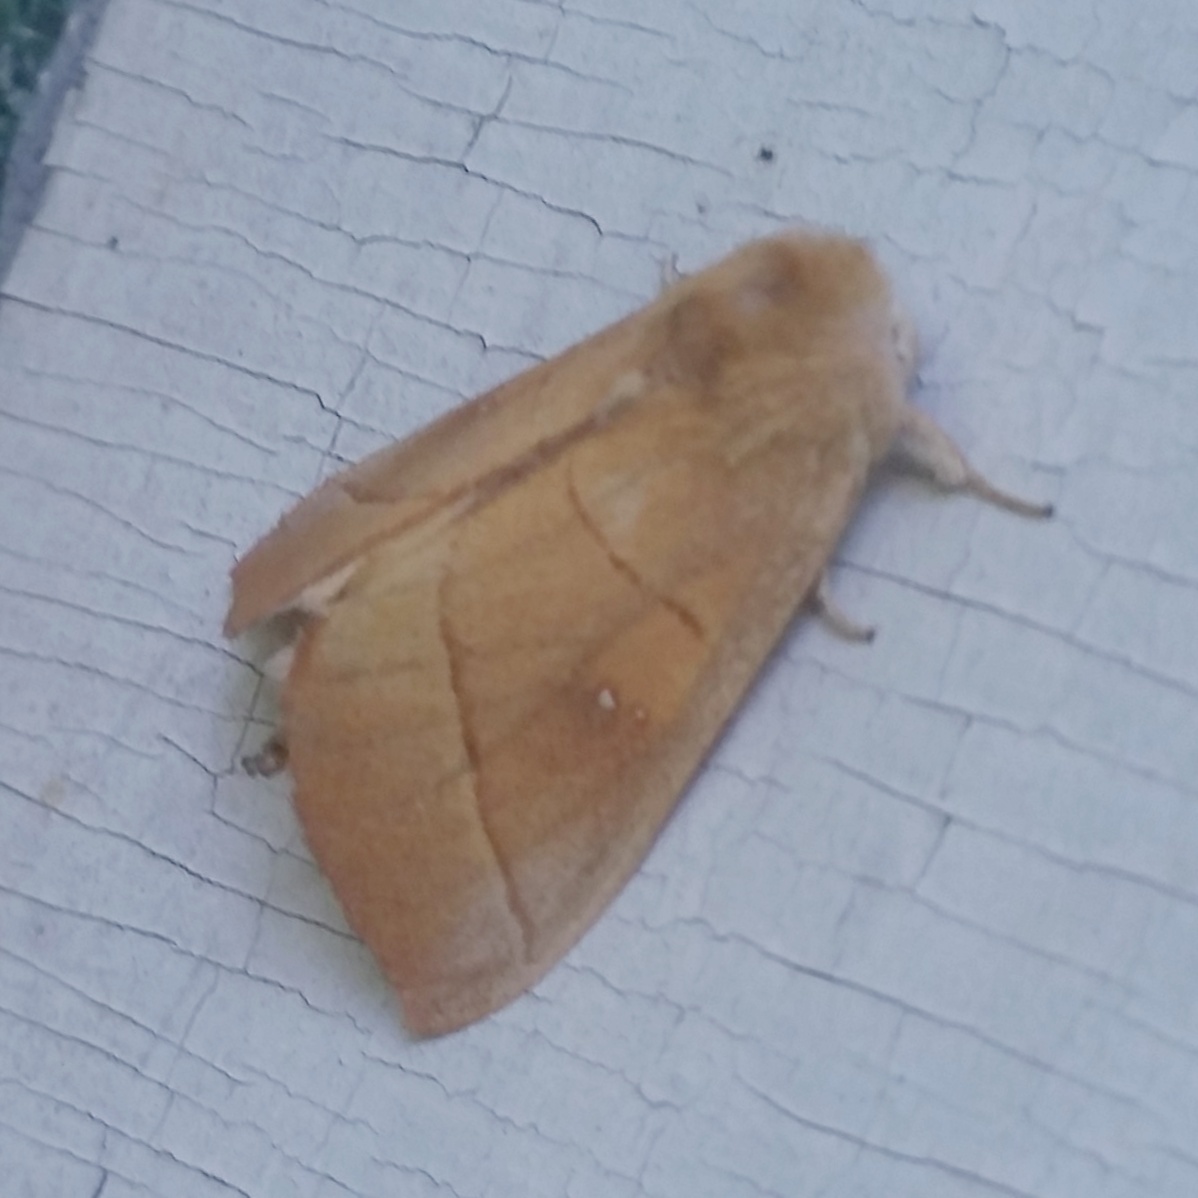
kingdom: Animalia
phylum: Arthropoda
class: Insecta
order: Lepidoptera
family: Notodontidae
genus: Nadata
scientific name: Nadata gibbosa
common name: White-dotted prominent
